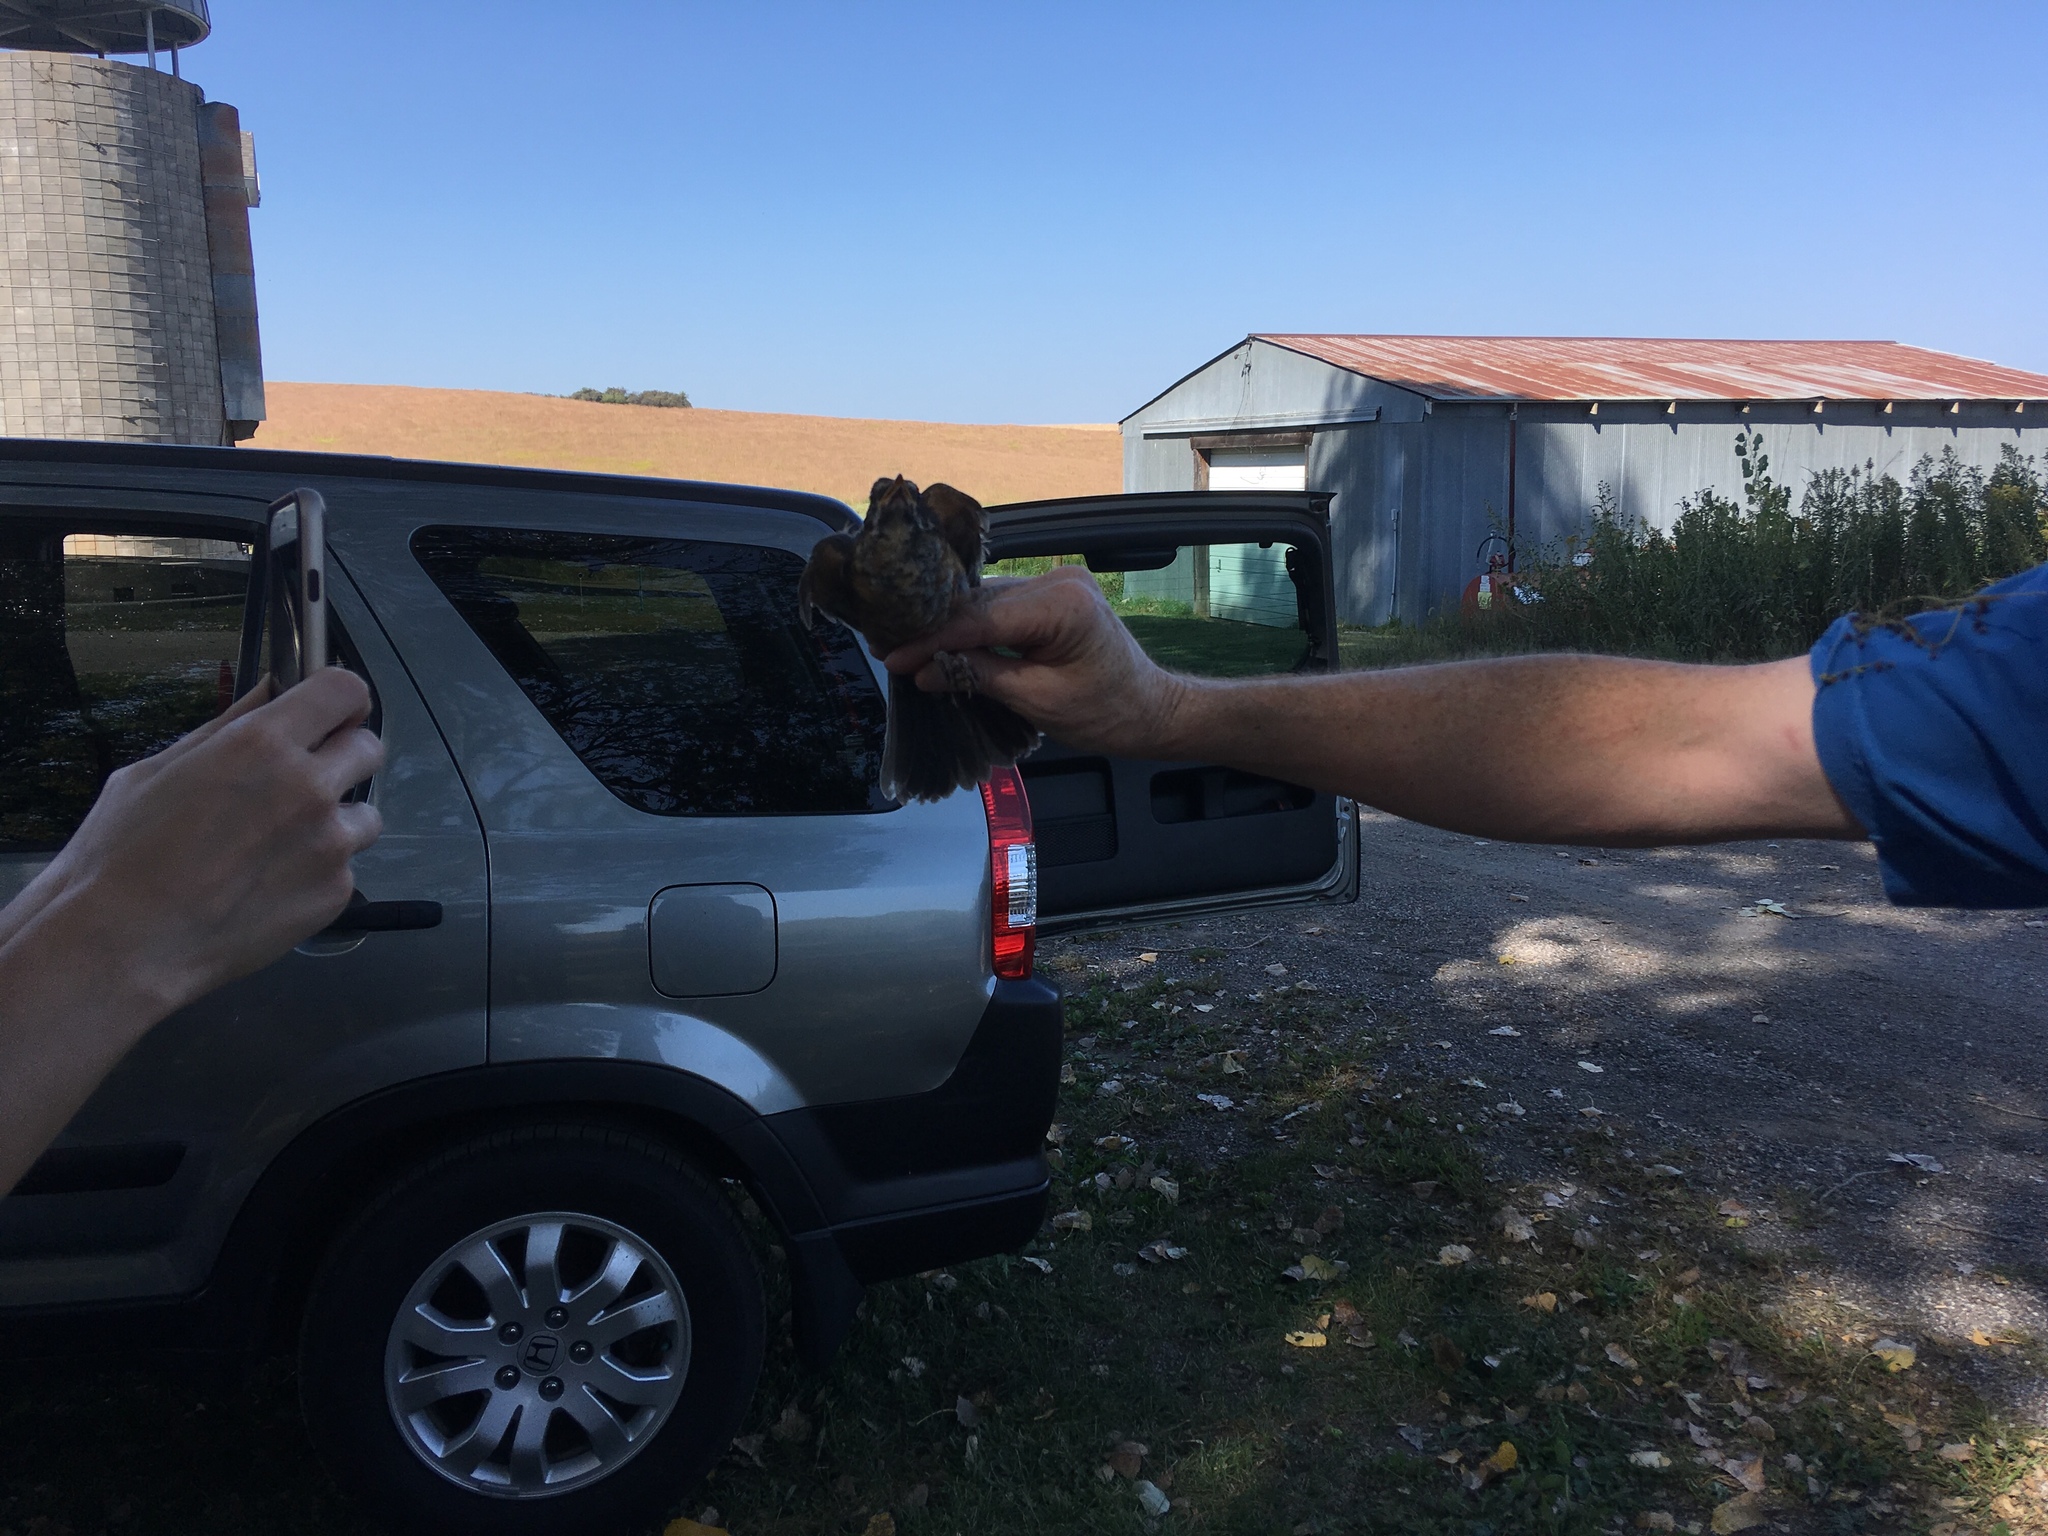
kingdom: Animalia
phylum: Chordata
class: Aves
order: Passeriformes
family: Turdidae
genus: Turdus
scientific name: Turdus migratorius
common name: American robin
